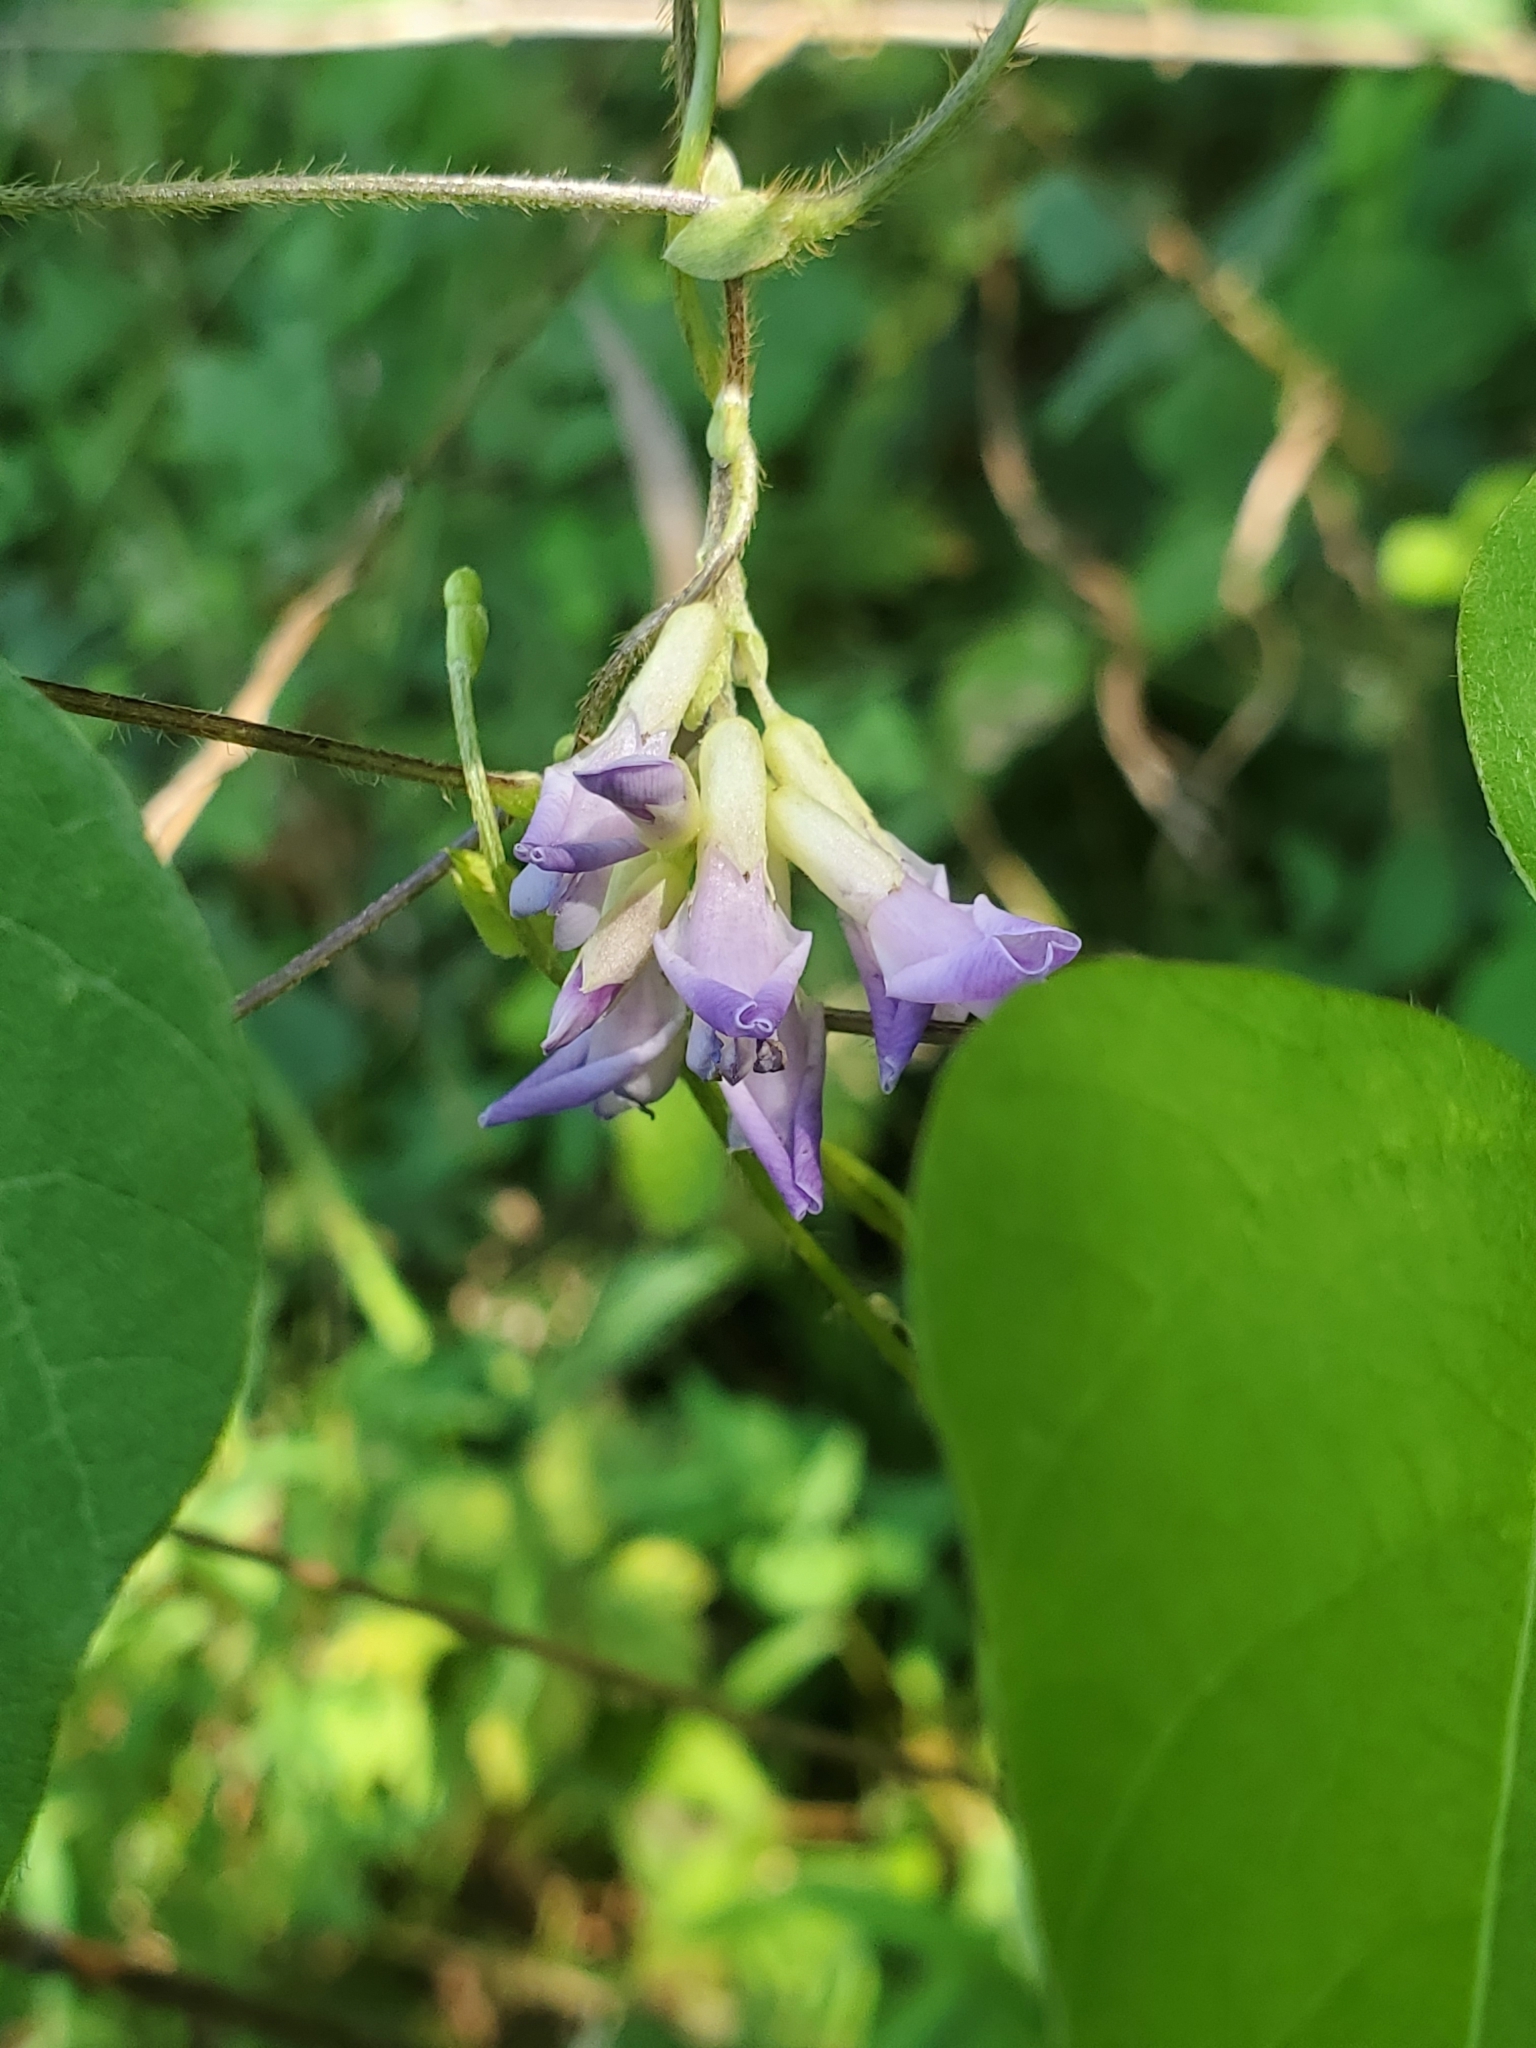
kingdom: Plantae
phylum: Tracheophyta
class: Magnoliopsida
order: Fabales
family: Fabaceae
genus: Amphicarpaea
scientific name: Amphicarpaea bracteata
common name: American hog peanut
